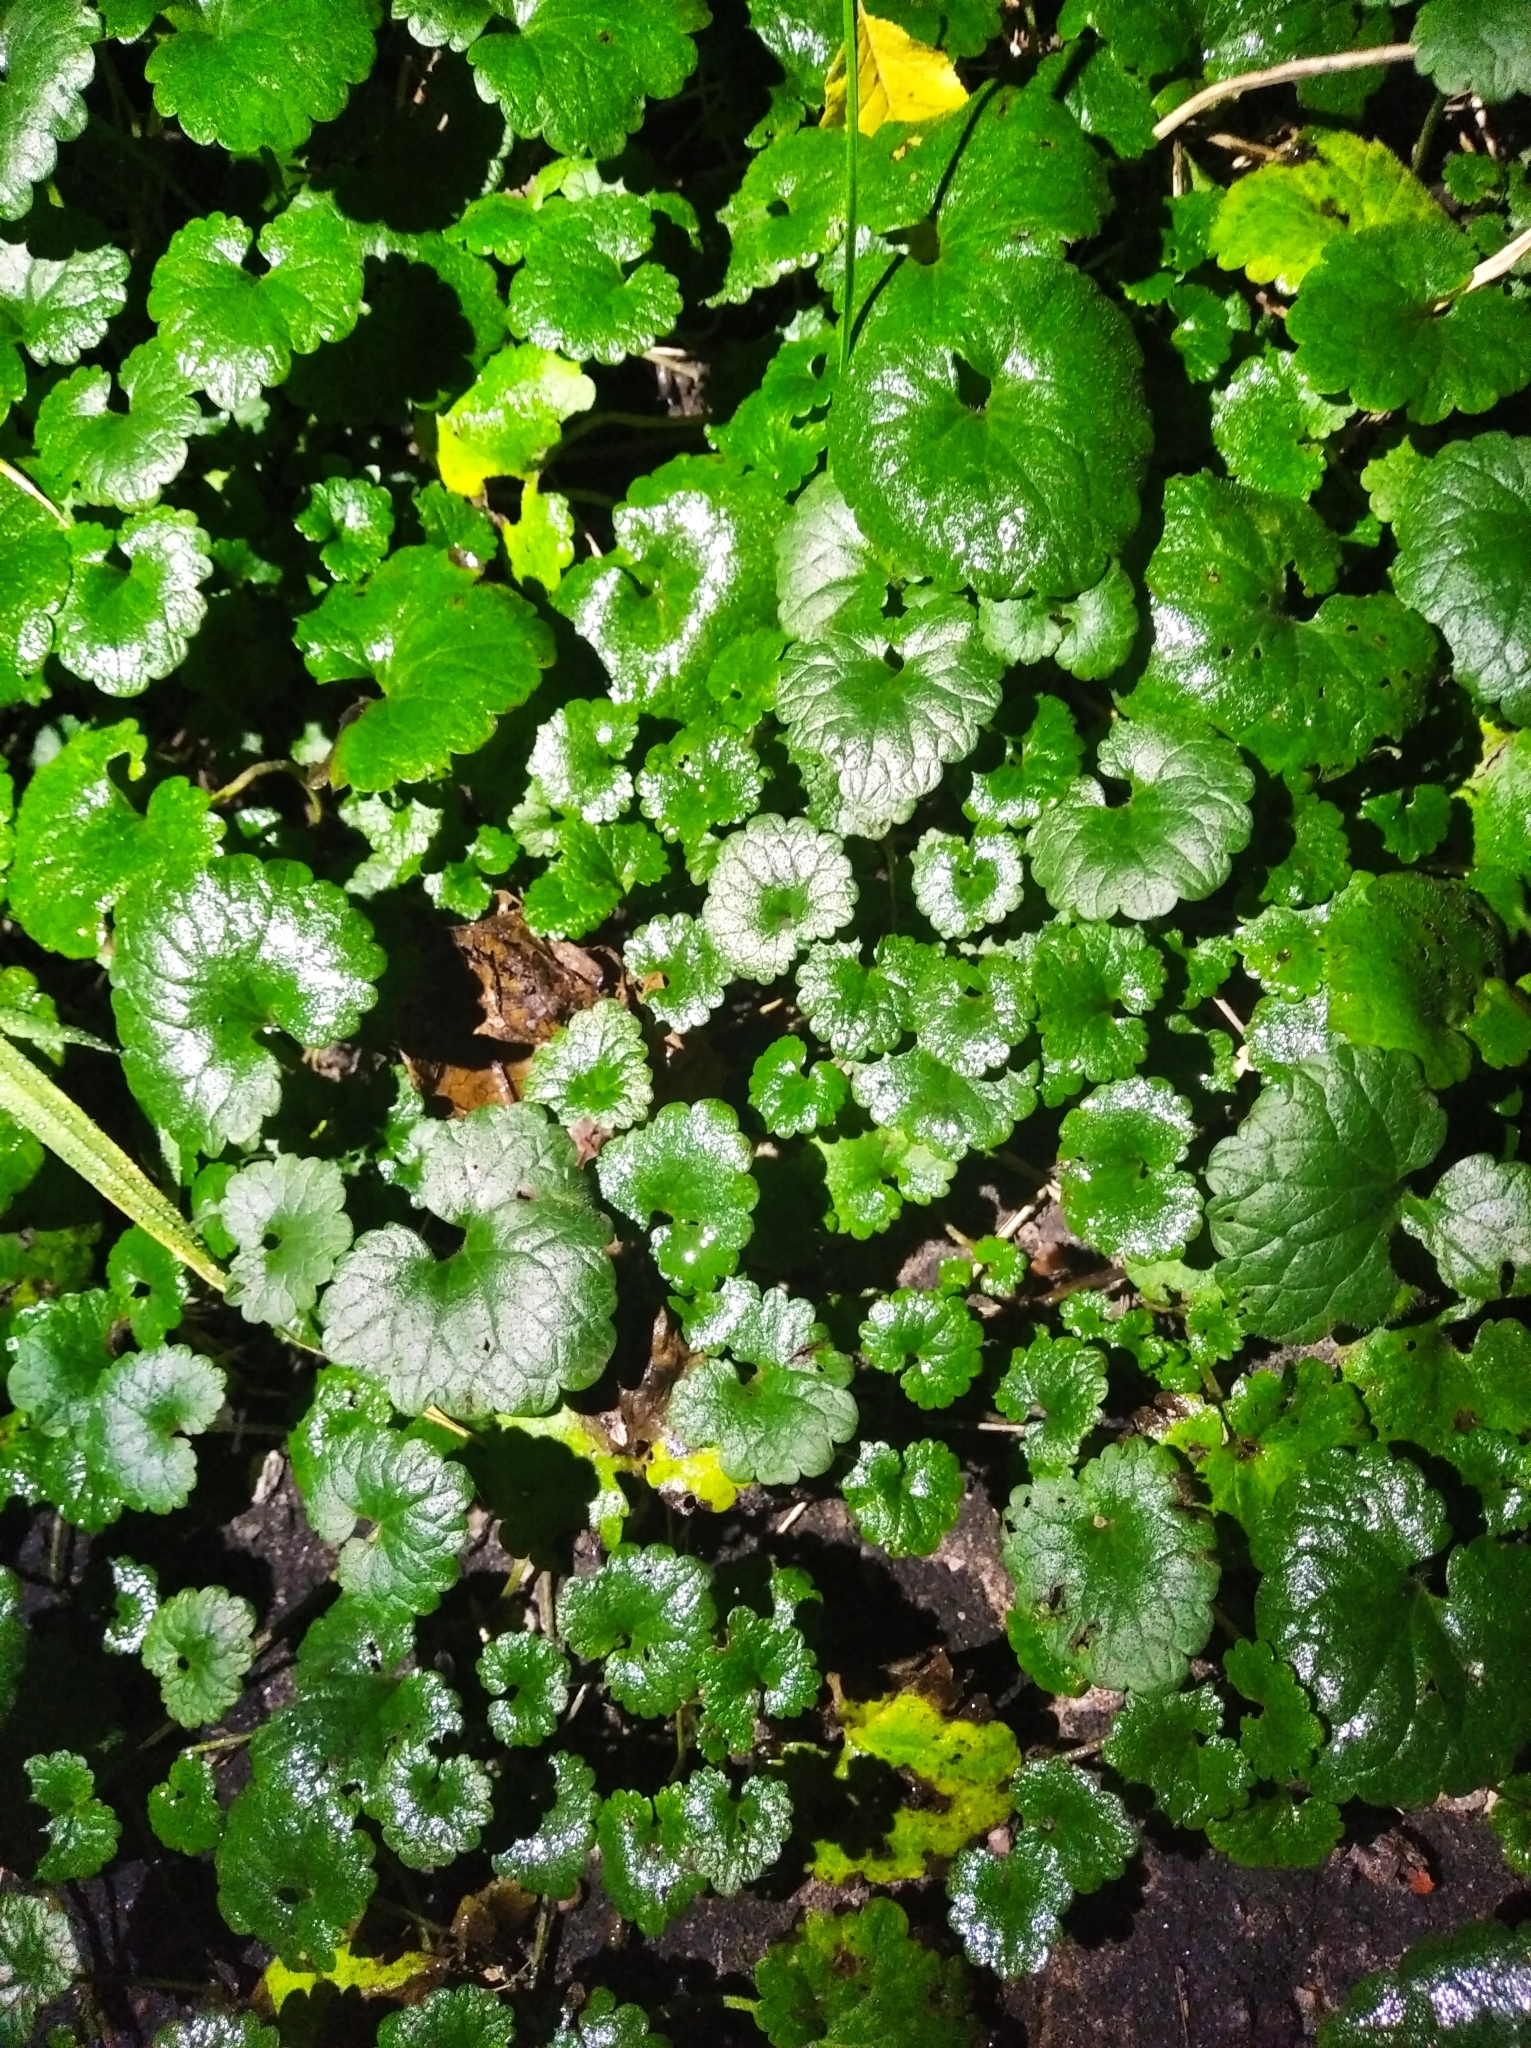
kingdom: Plantae
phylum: Tracheophyta
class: Magnoliopsida
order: Lamiales
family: Lamiaceae
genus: Glechoma
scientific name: Glechoma hederacea
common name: Ground ivy
